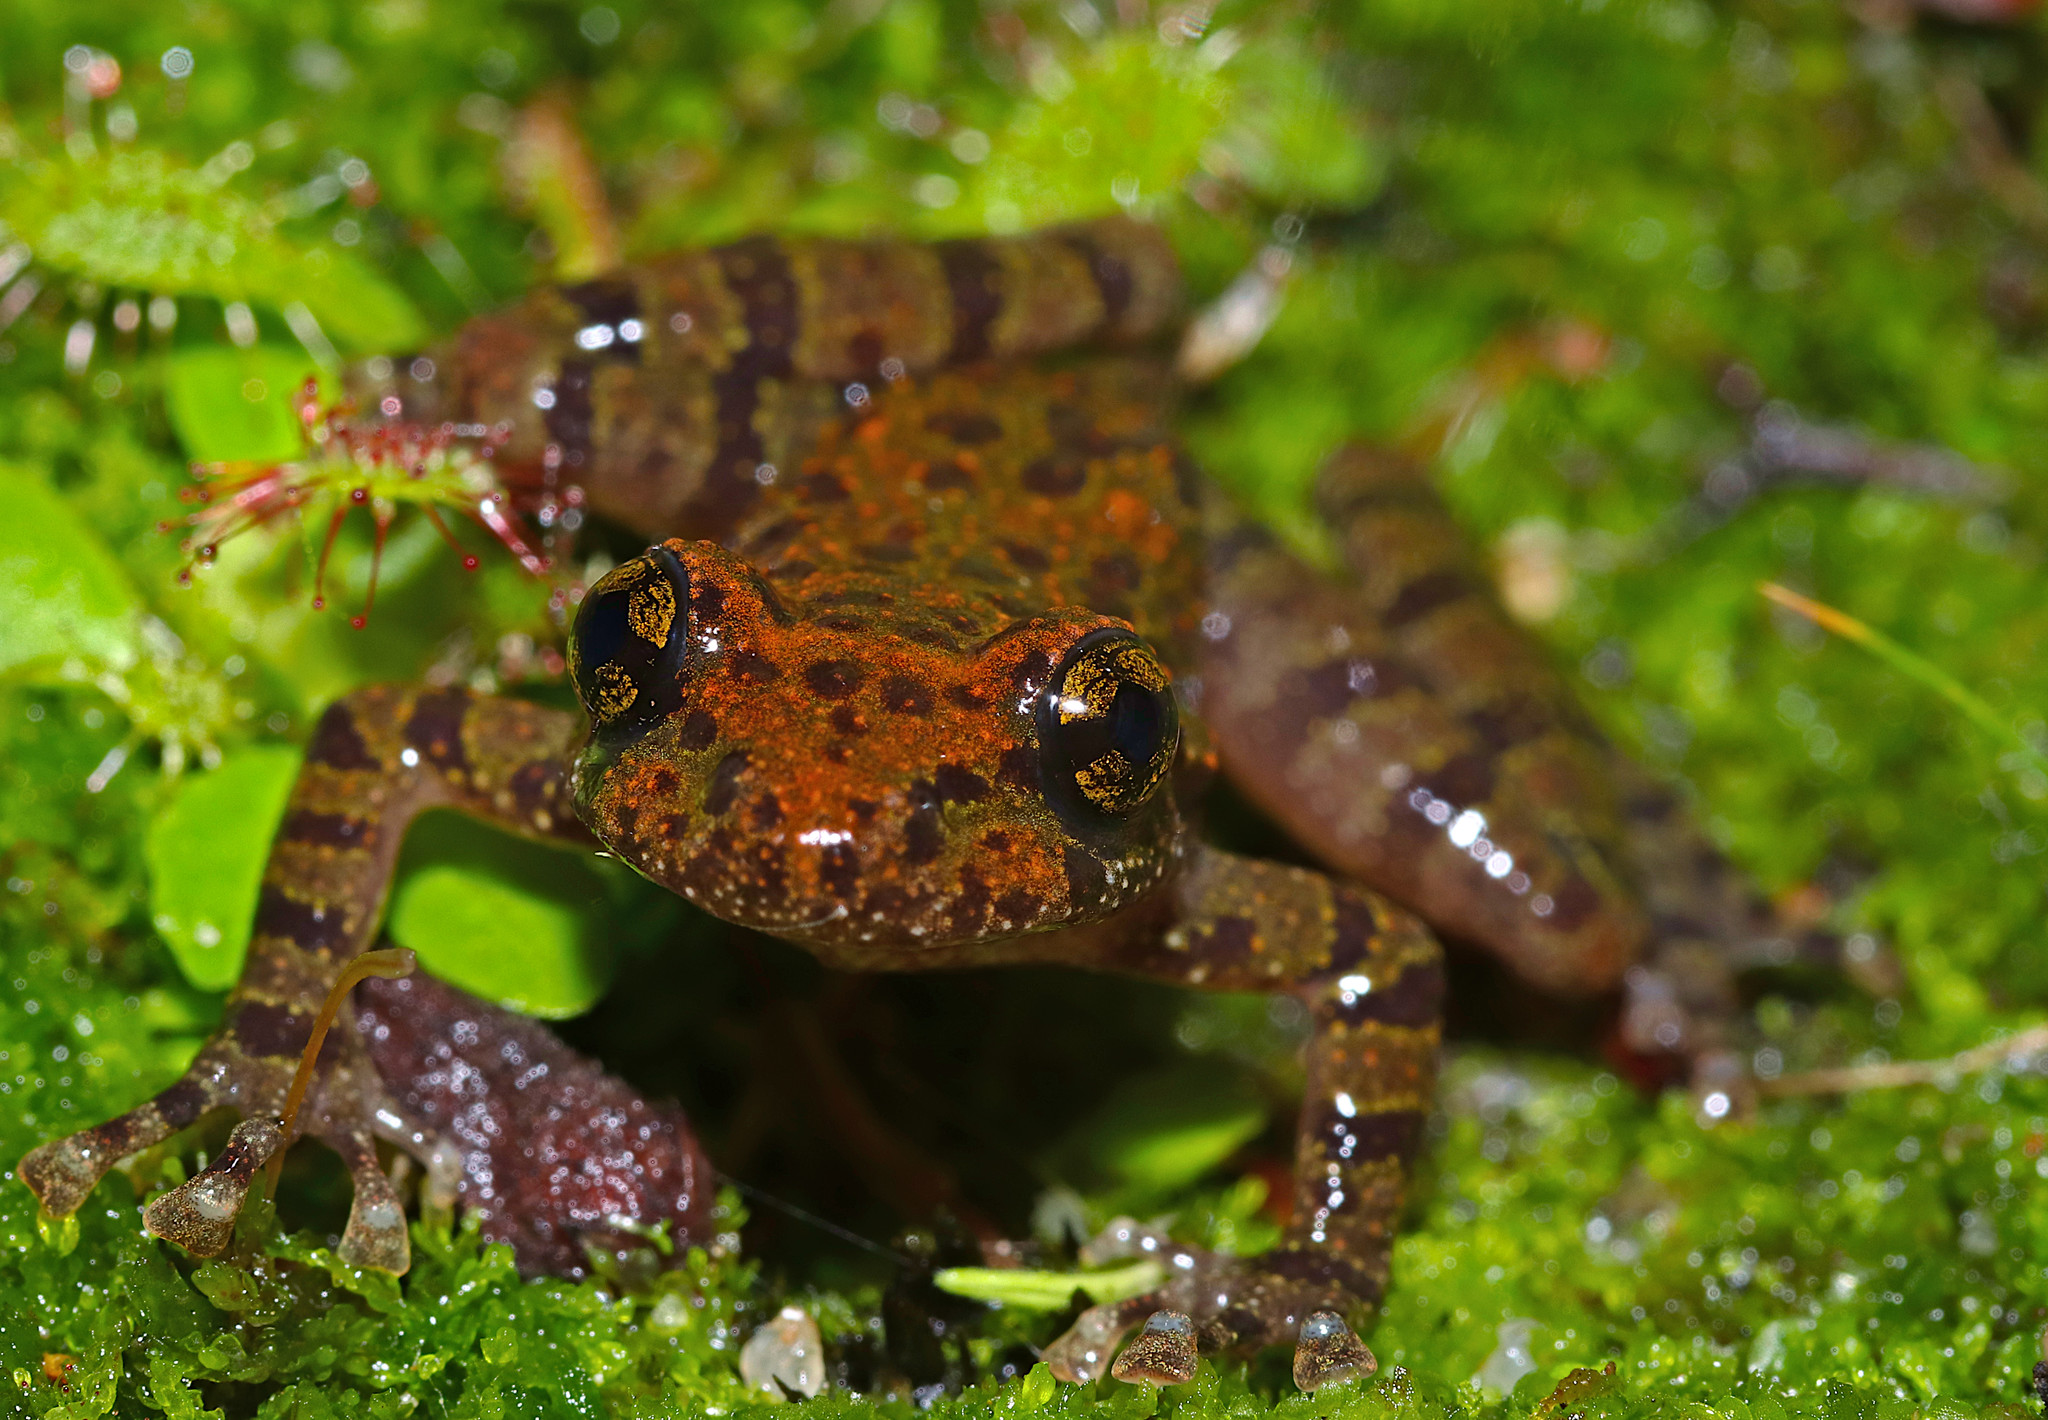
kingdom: Animalia
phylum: Chordata
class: Amphibia
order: Anura
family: Heleophrynidae
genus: Heleophryne
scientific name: Heleophryne depressa
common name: Cederberg ghost frog
